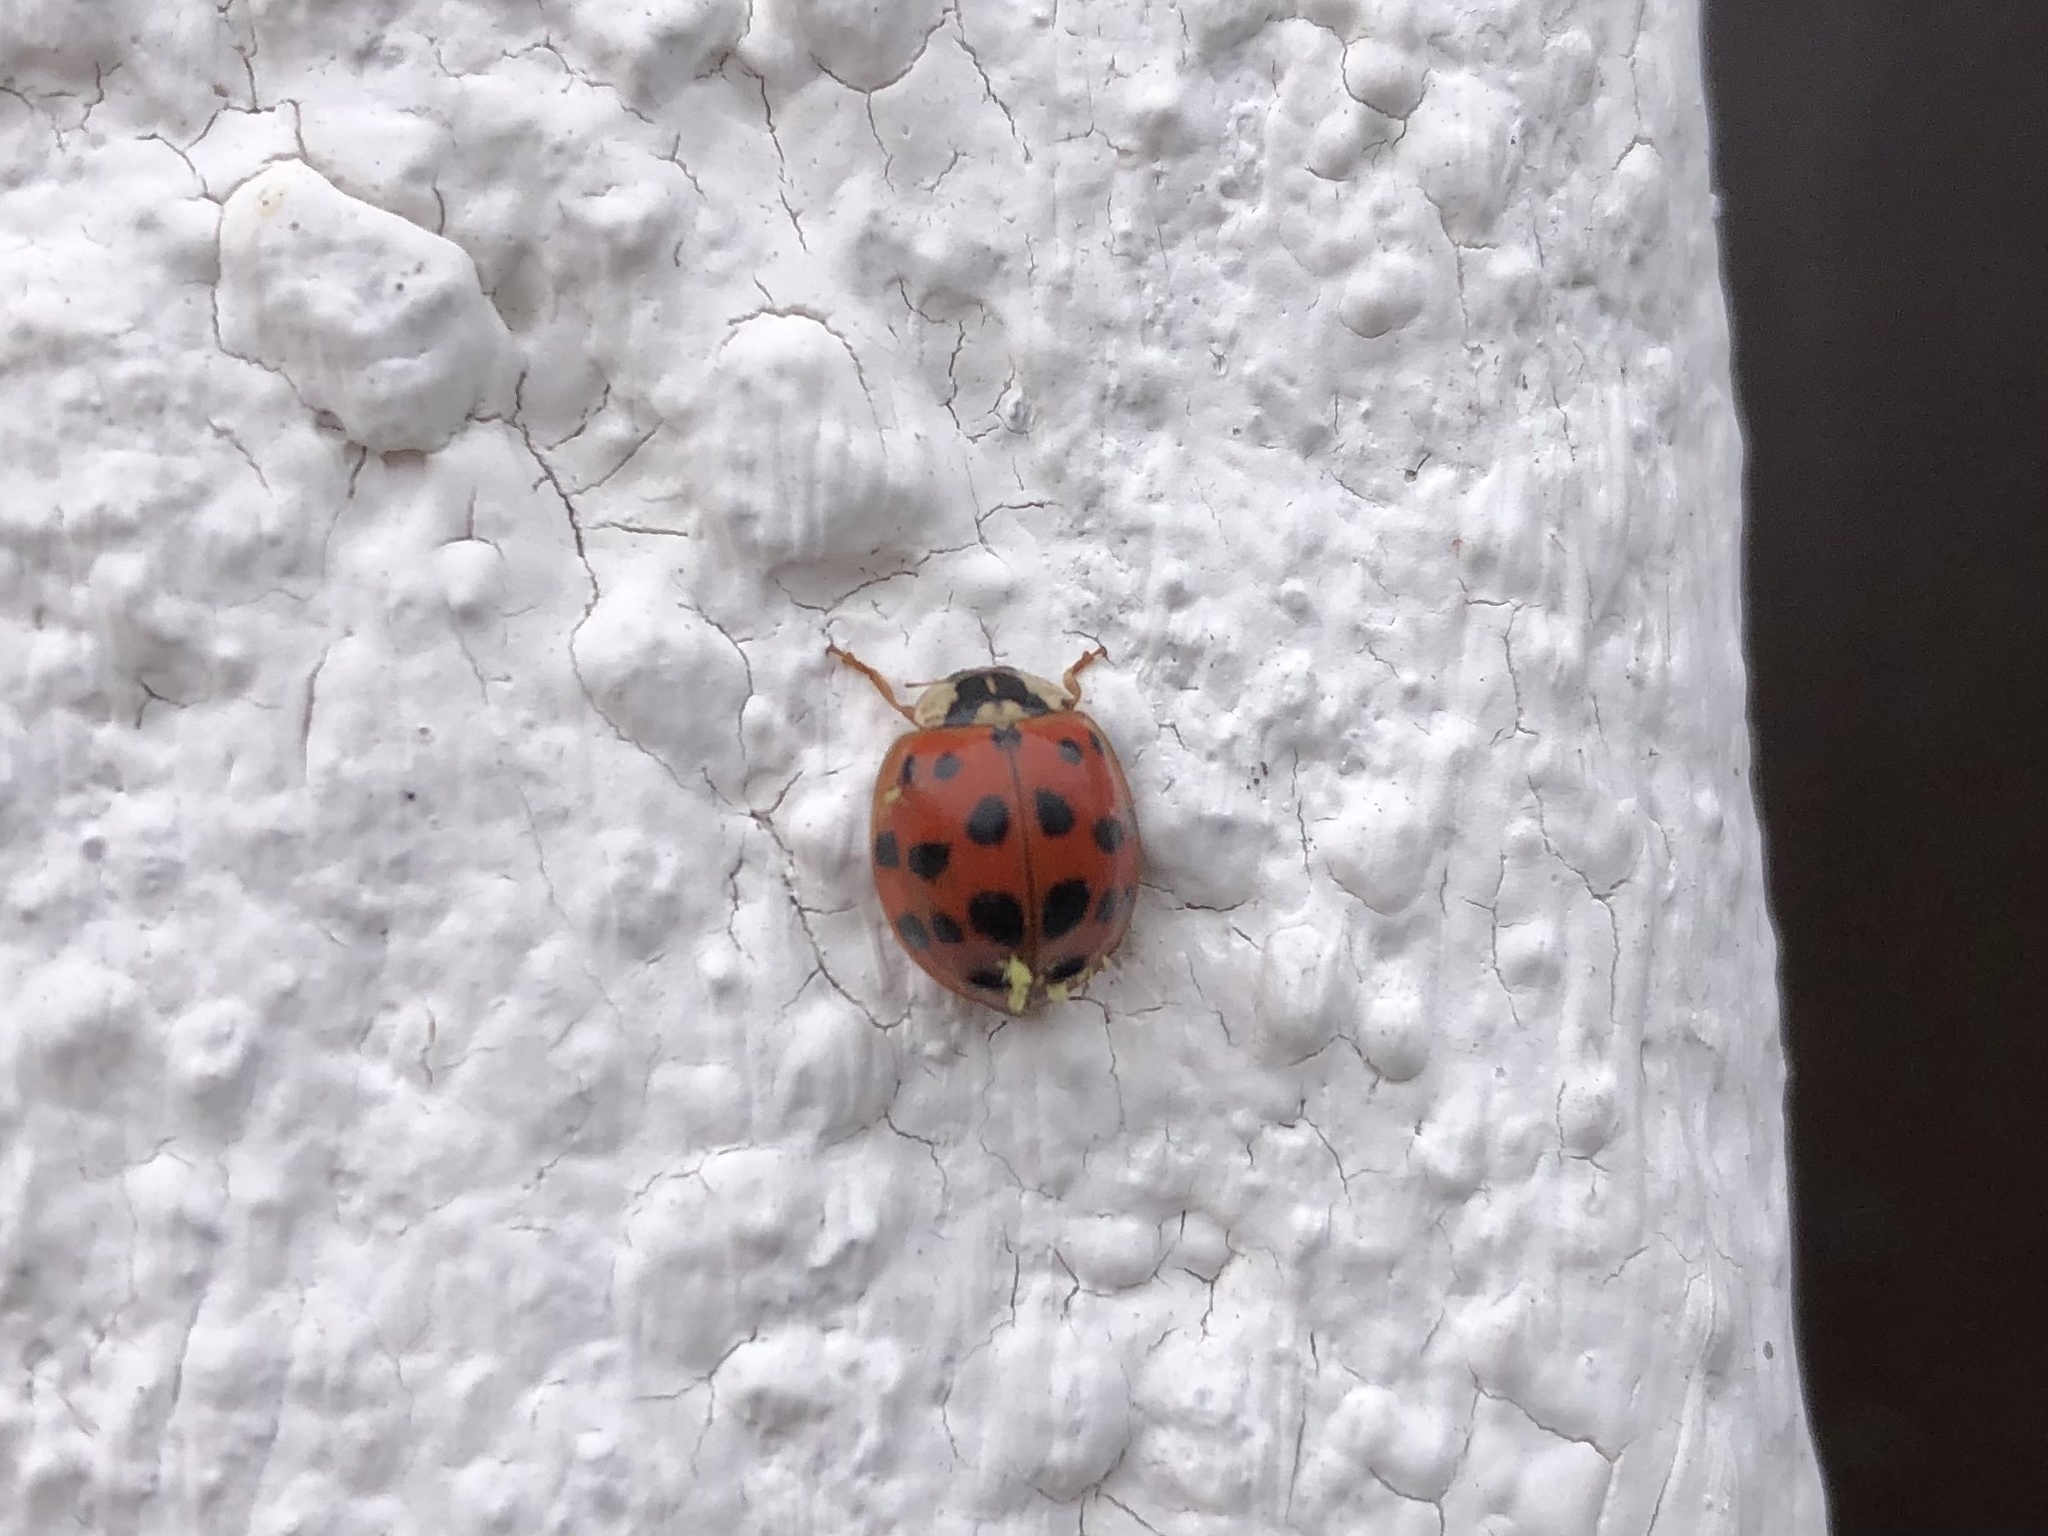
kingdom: Animalia
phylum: Arthropoda
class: Insecta
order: Coleoptera
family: Coccinellidae
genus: Harmonia
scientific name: Harmonia axyridis
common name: Harlequin ladybird
